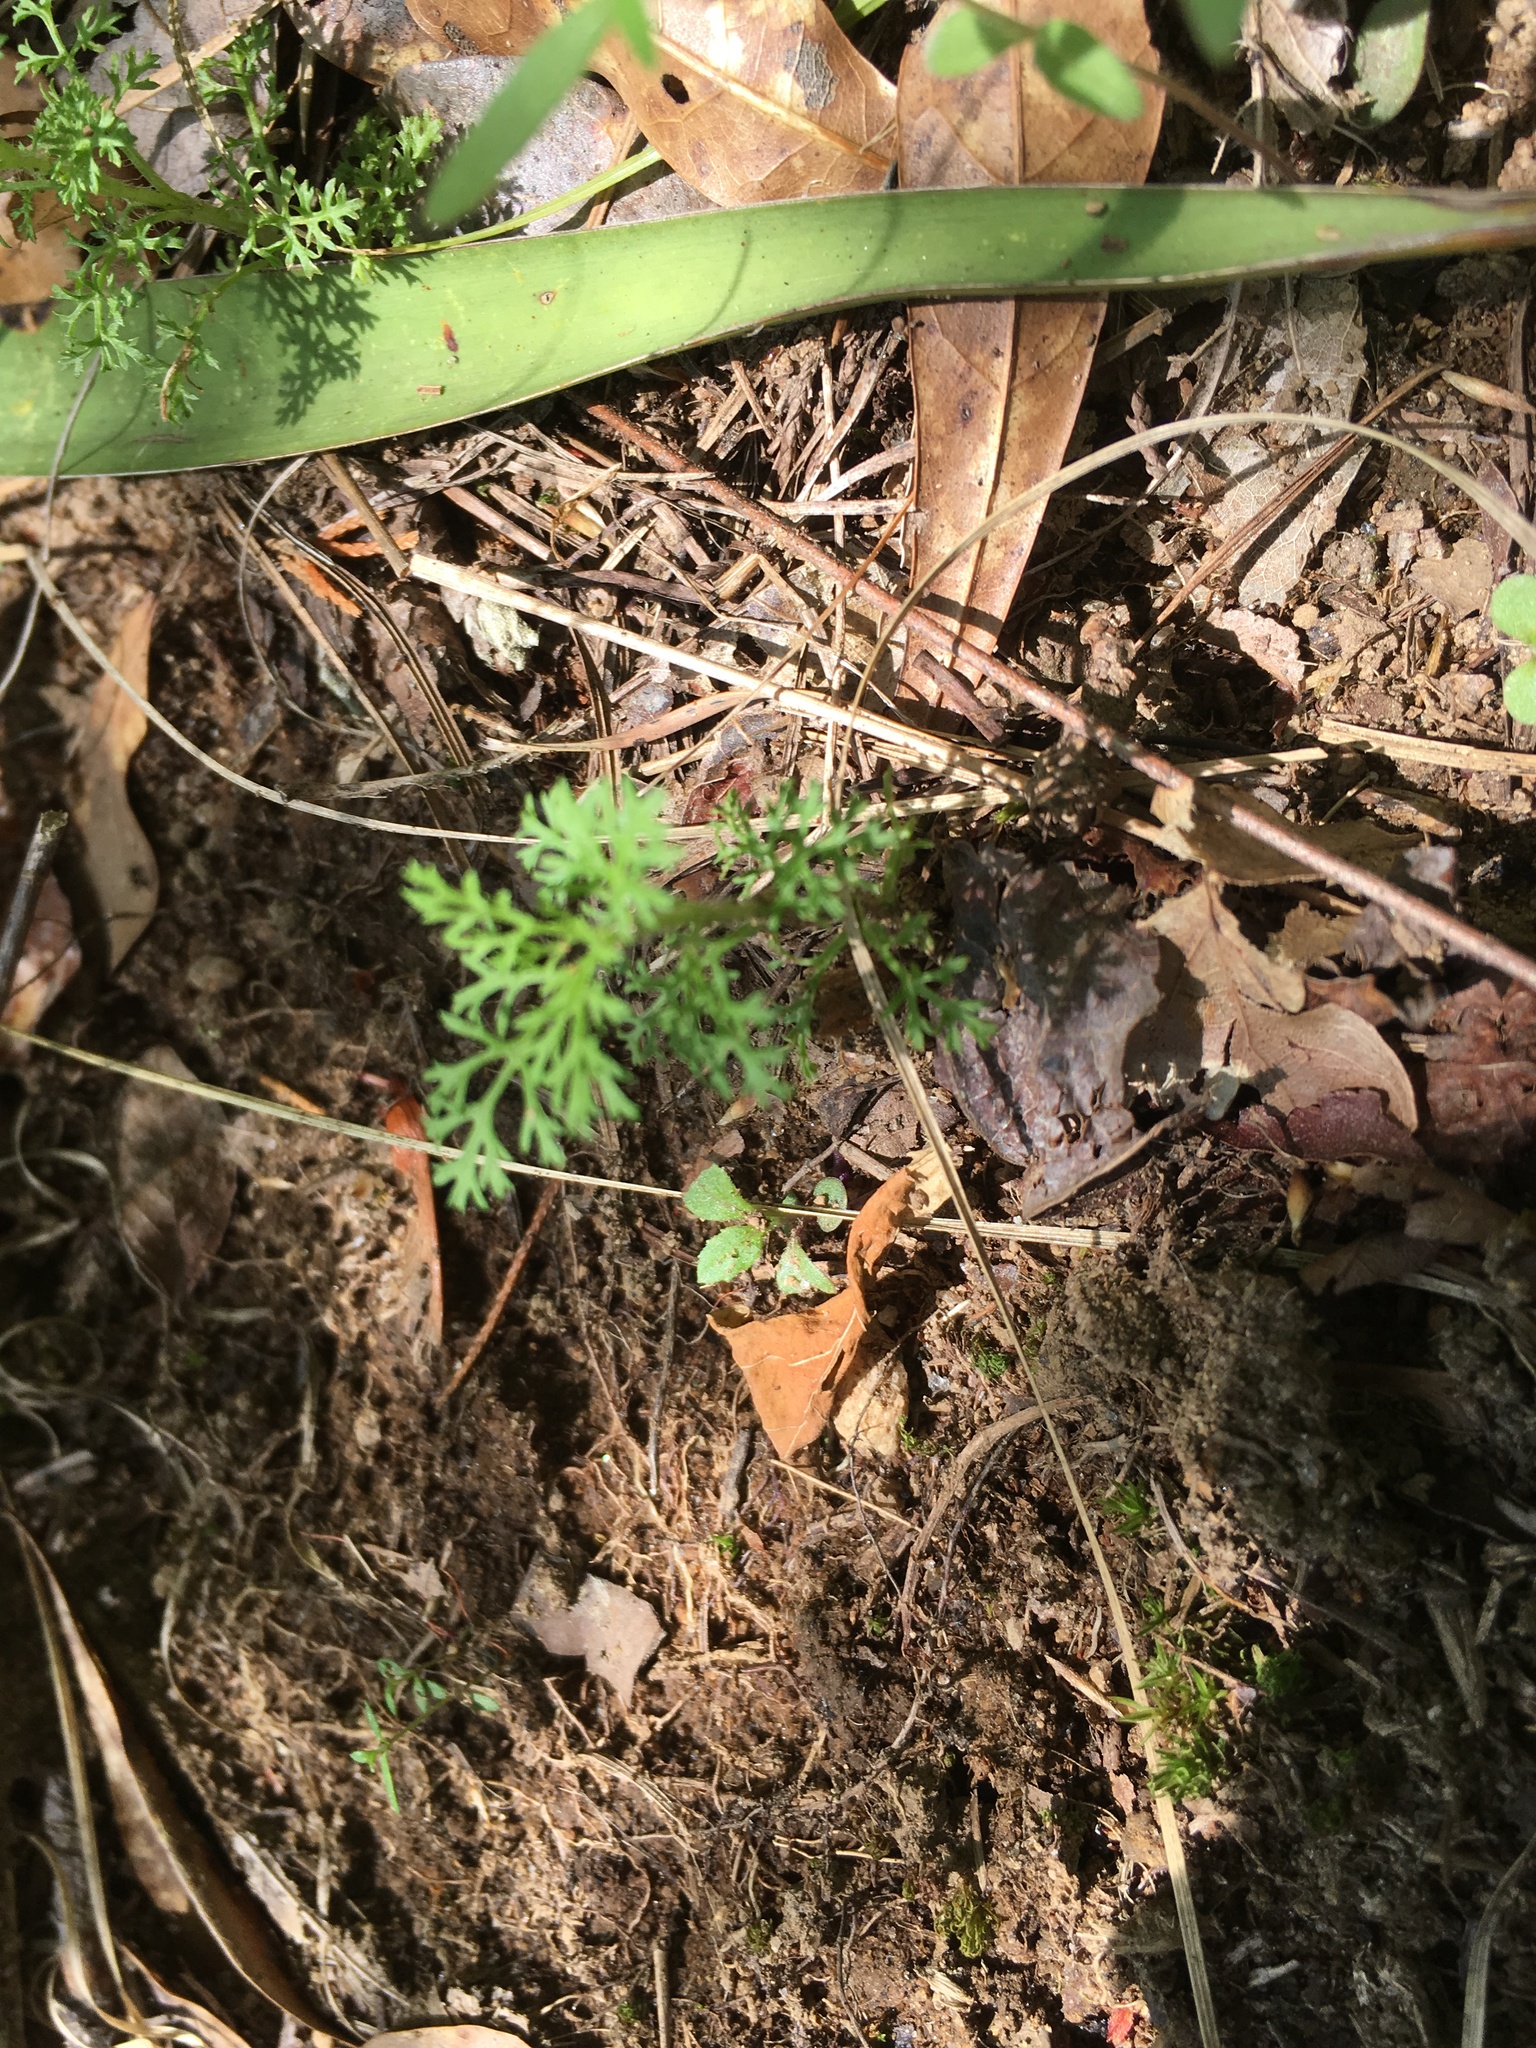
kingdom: Plantae
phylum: Tracheophyta
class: Magnoliopsida
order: Asterales
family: Asteraceae
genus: Eupatorium
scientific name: Eupatorium capillifolium
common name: Dog-fennel
